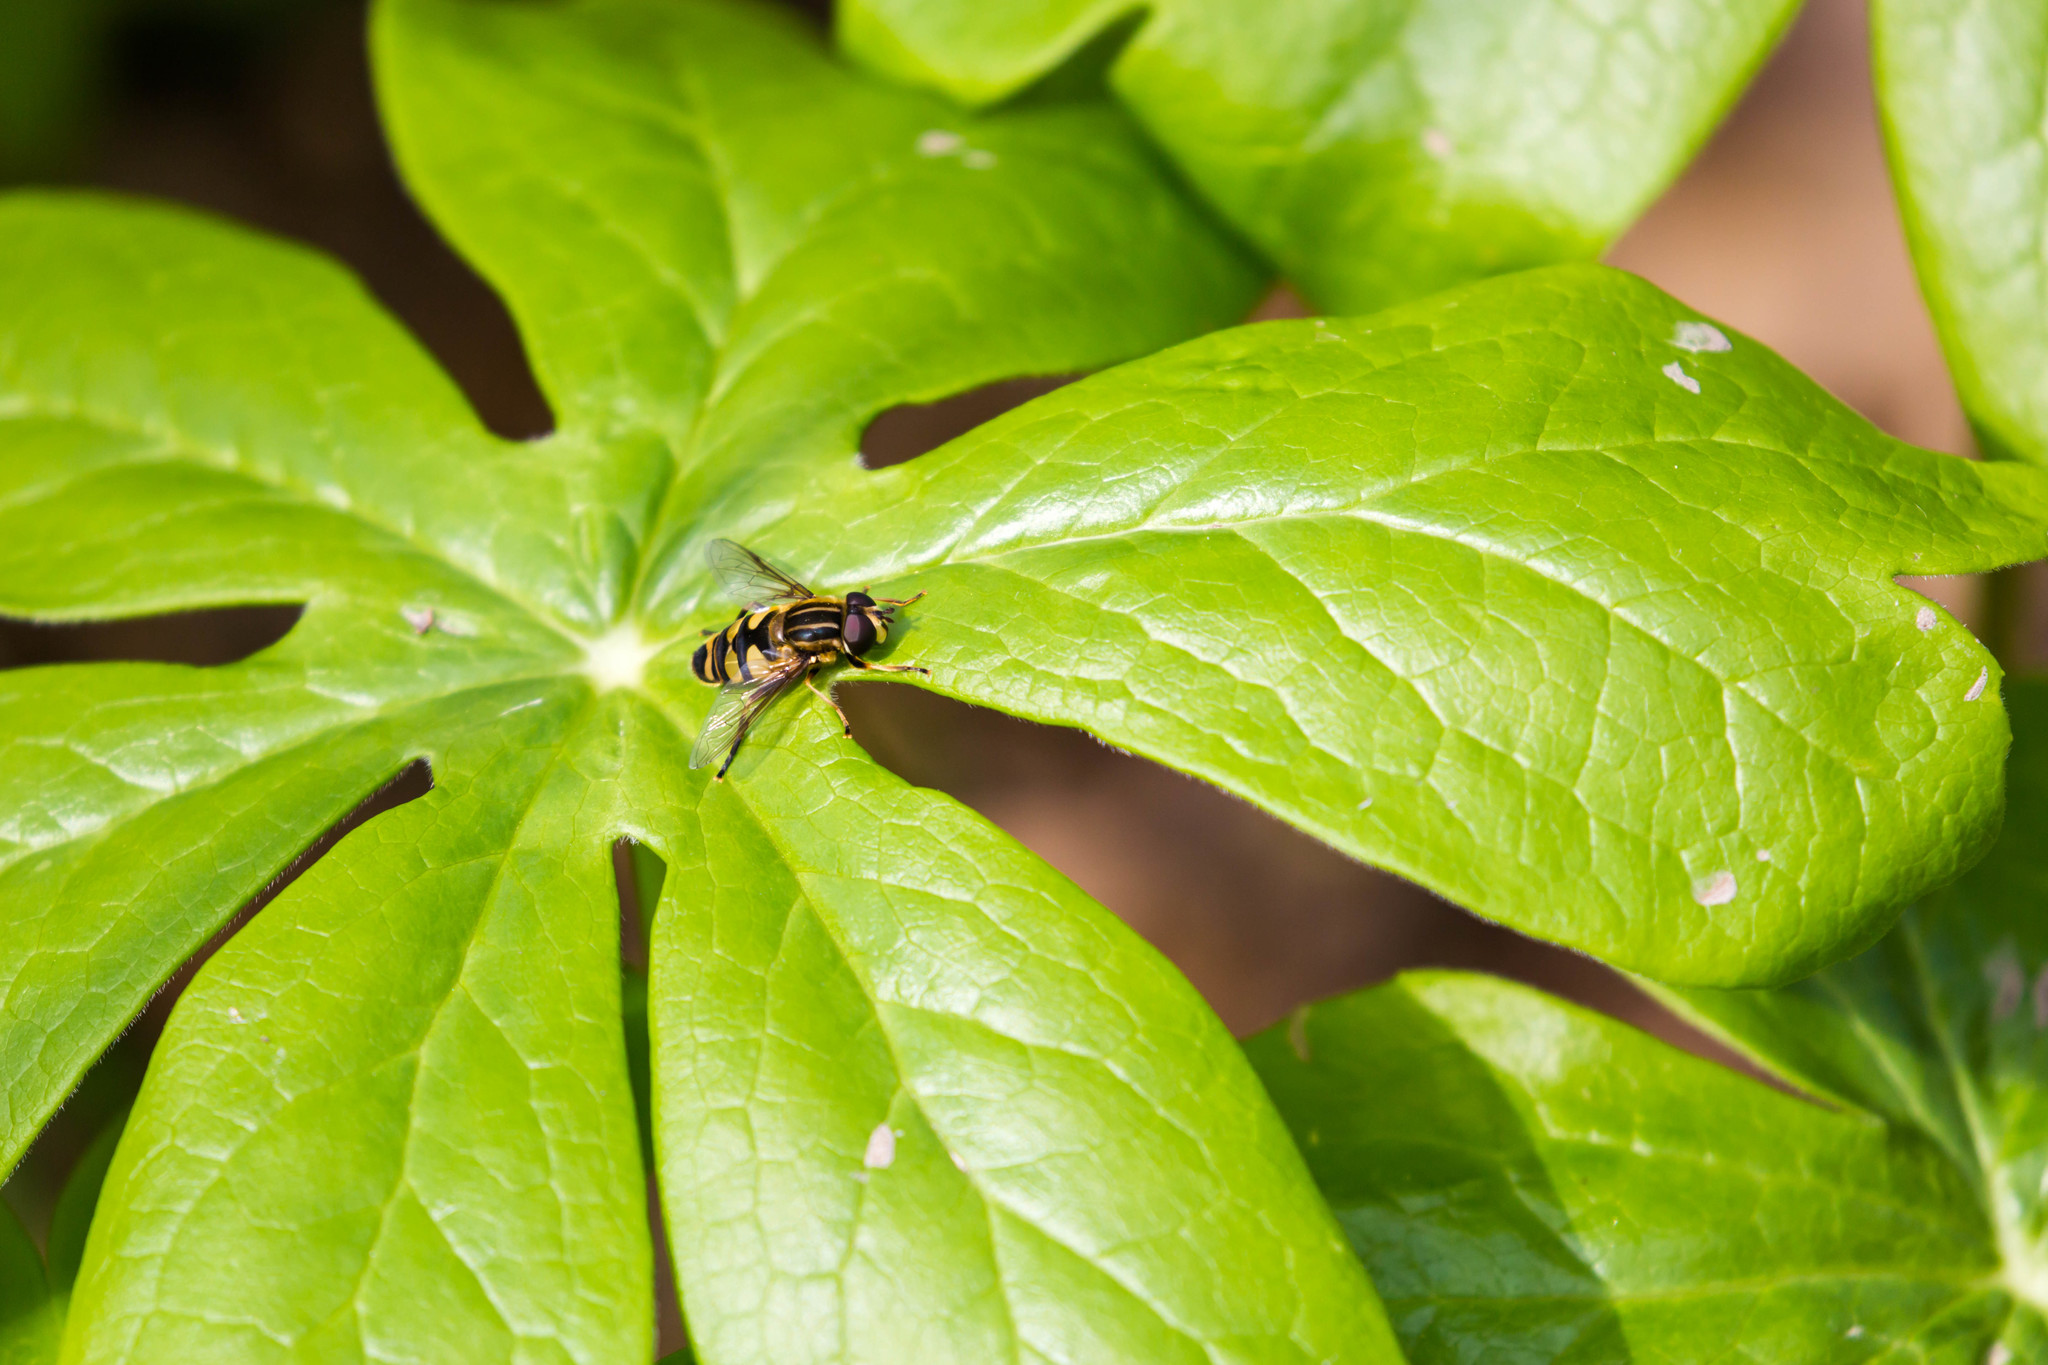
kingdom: Animalia
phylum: Arthropoda
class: Insecta
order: Diptera
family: Syrphidae
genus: Helophilus
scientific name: Helophilus fasciatus
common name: Narrow-headed marsh fly
